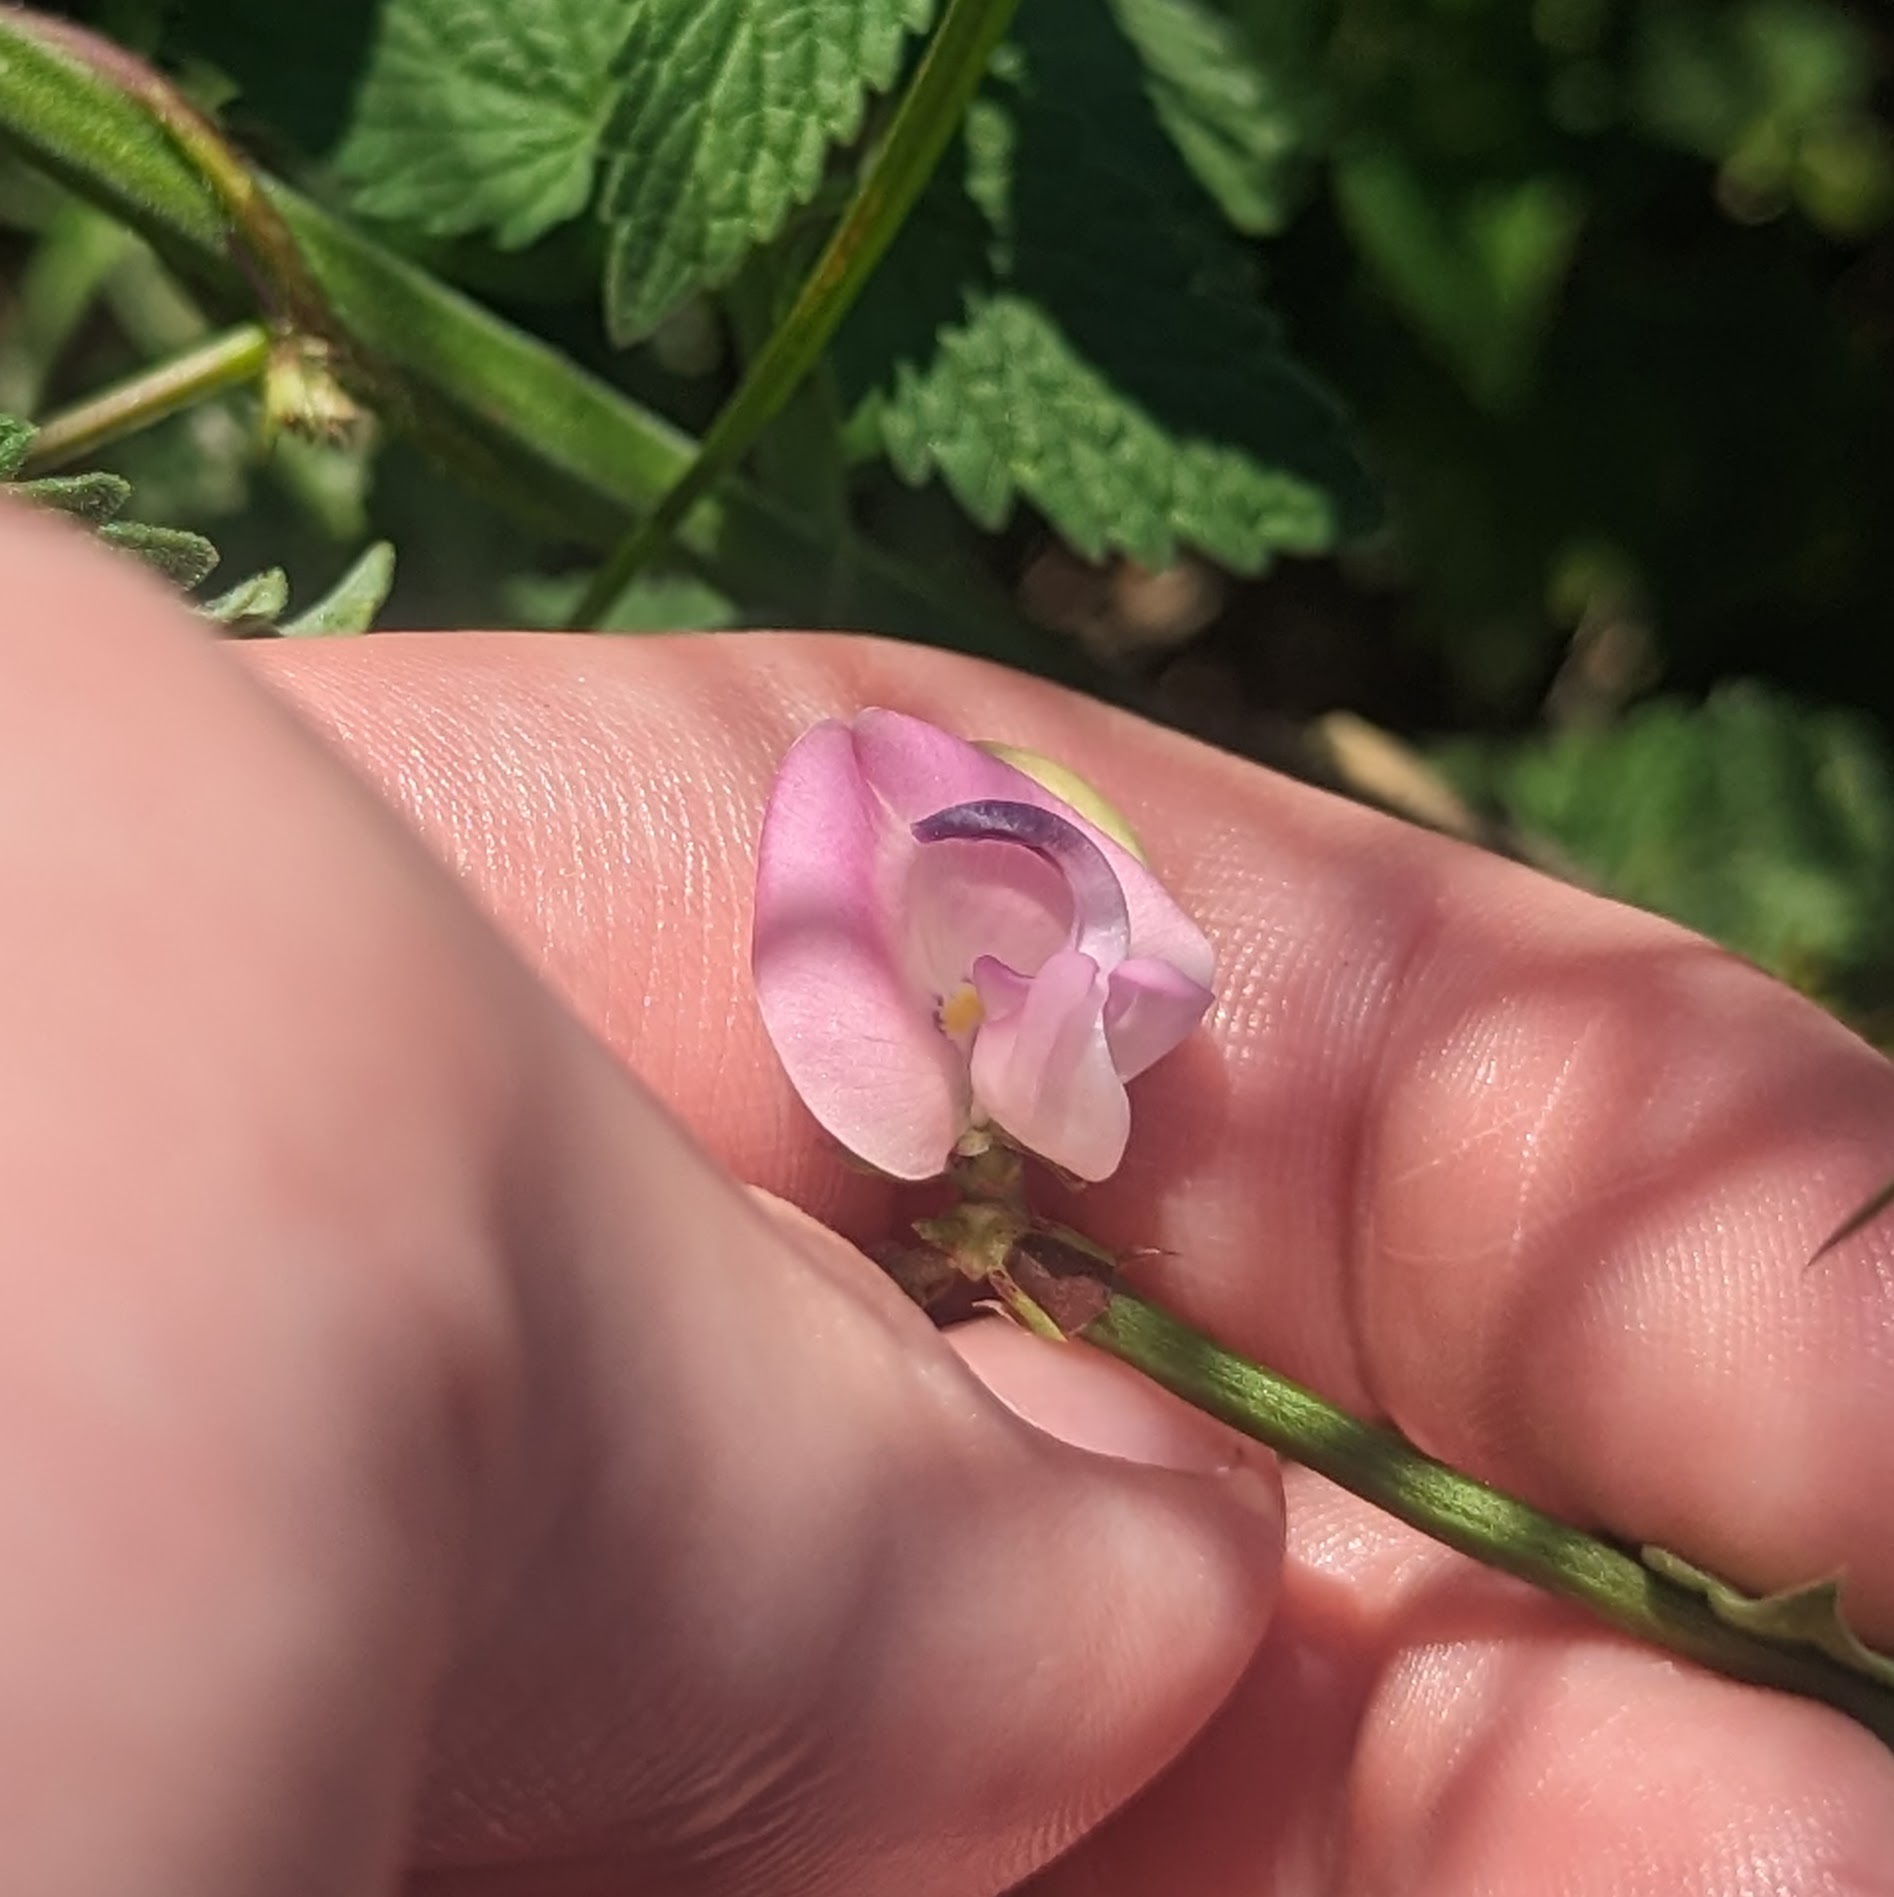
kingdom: Plantae
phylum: Tracheophyta
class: Magnoliopsida
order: Fabales
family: Fabaceae
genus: Strophostyles
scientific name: Strophostyles helvola
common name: Trailing wild bean
